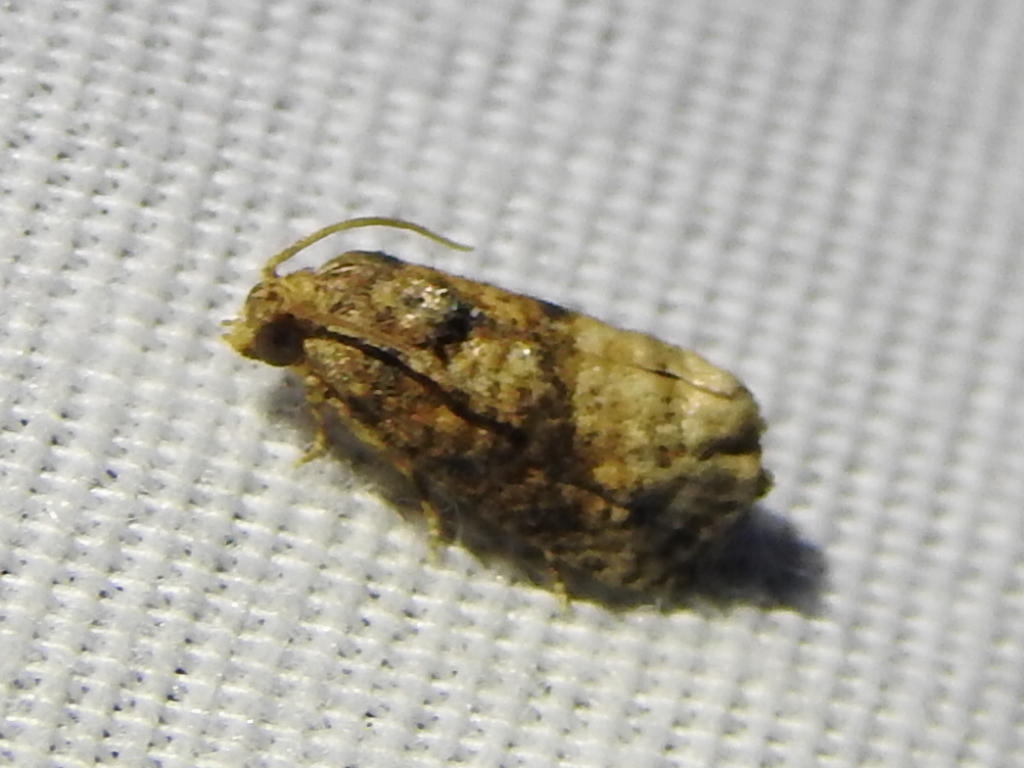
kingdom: Animalia
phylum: Arthropoda
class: Insecta
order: Lepidoptera
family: Tortricidae
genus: Ecdytolopha
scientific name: Ecdytolopha mana
